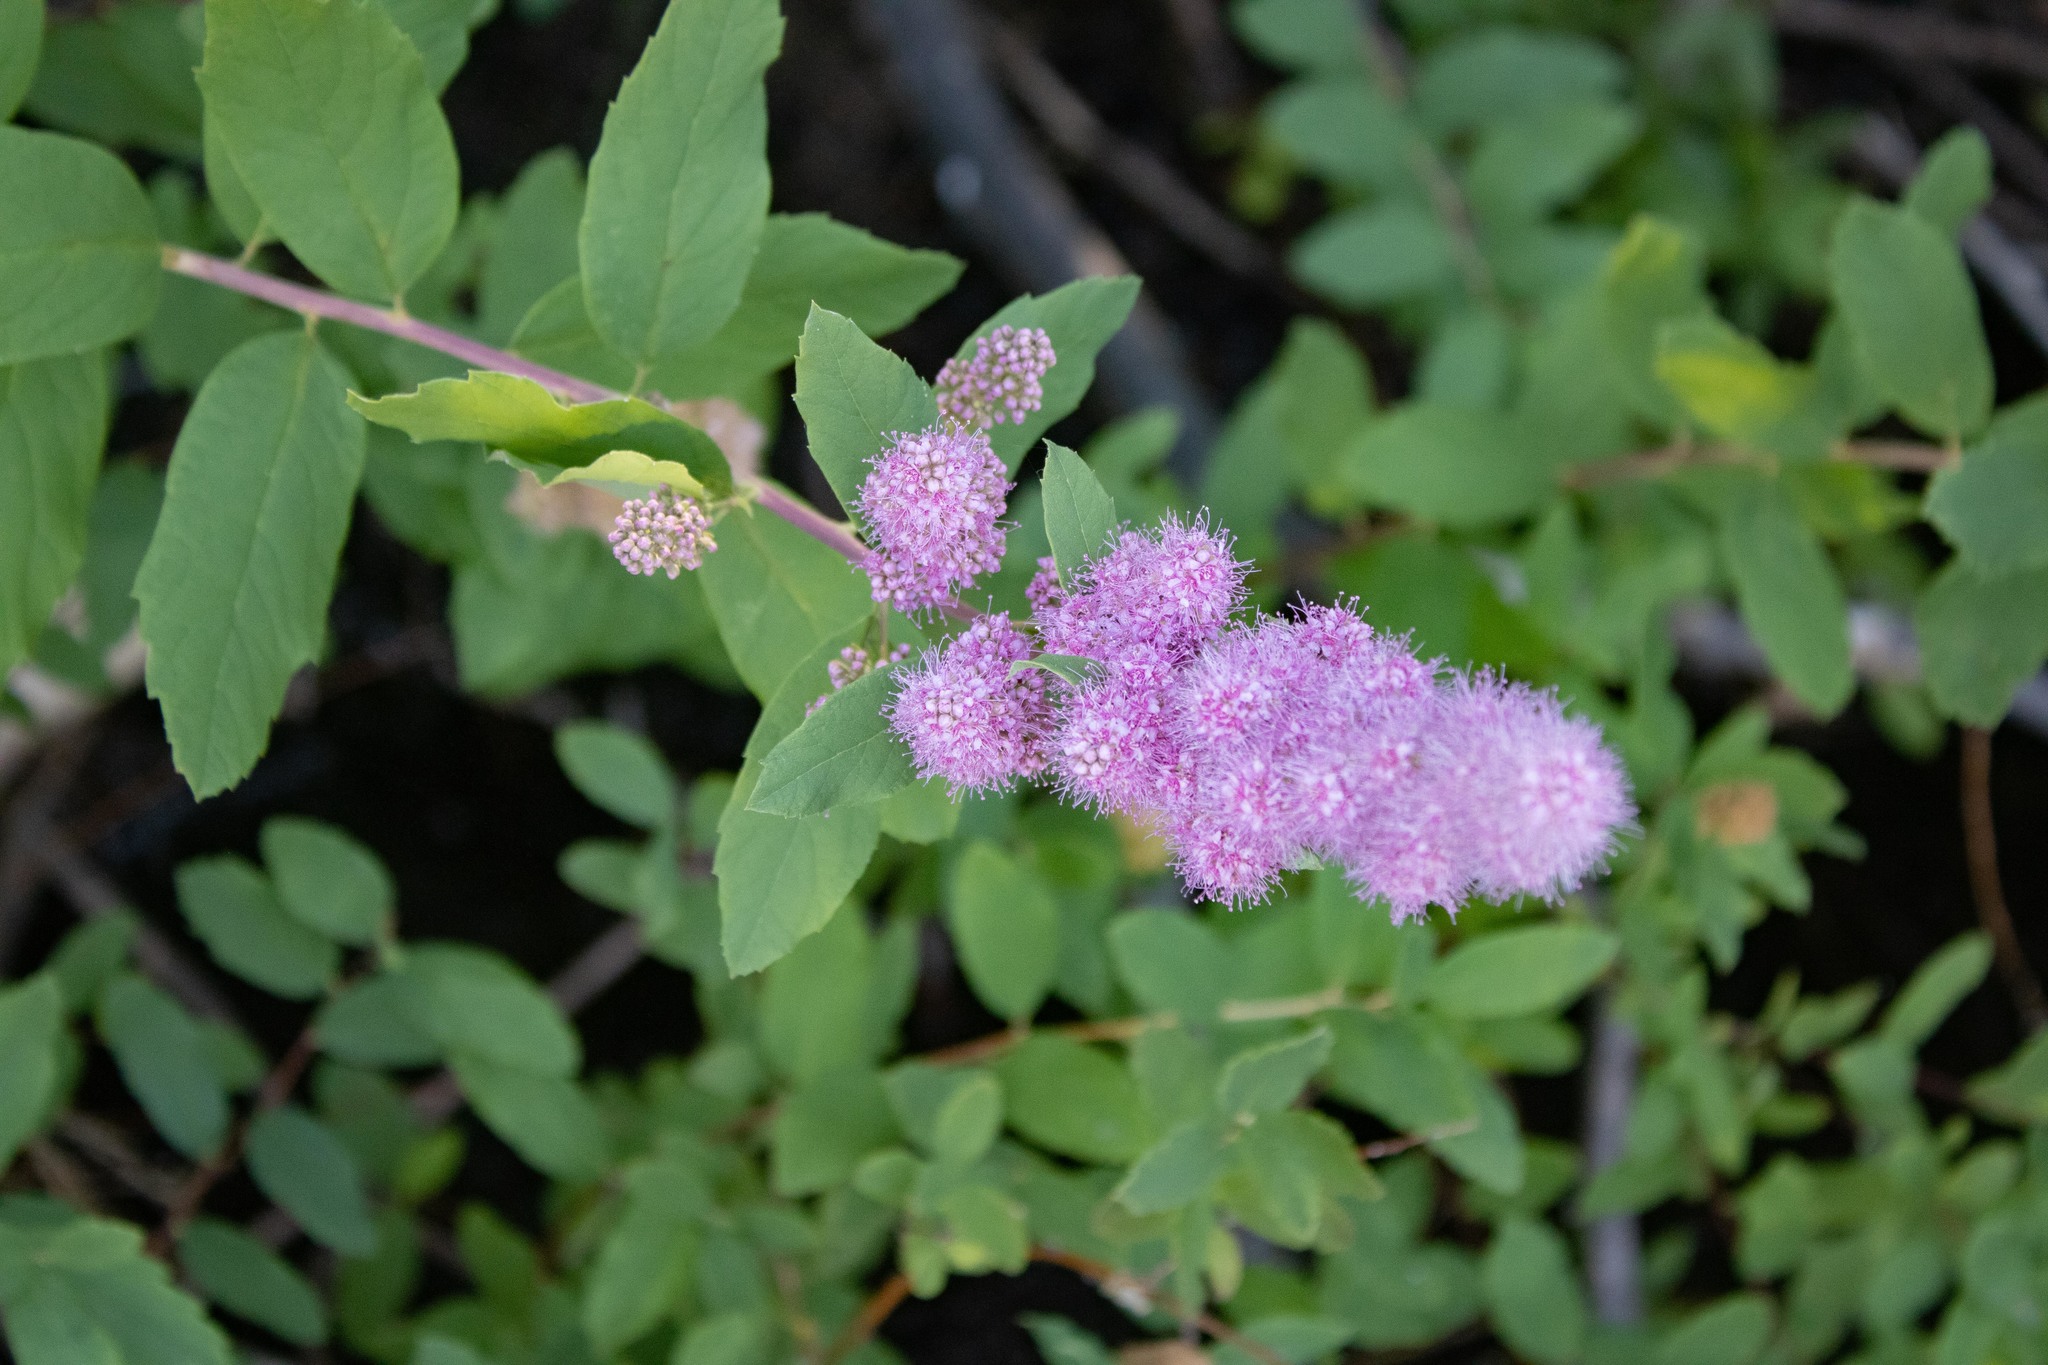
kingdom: Plantae
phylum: Tracheophyta
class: Magnoliopsida
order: Rosales
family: Rosaceae
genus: Spiraea
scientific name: Spiraea douglasii
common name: Steeplebush
